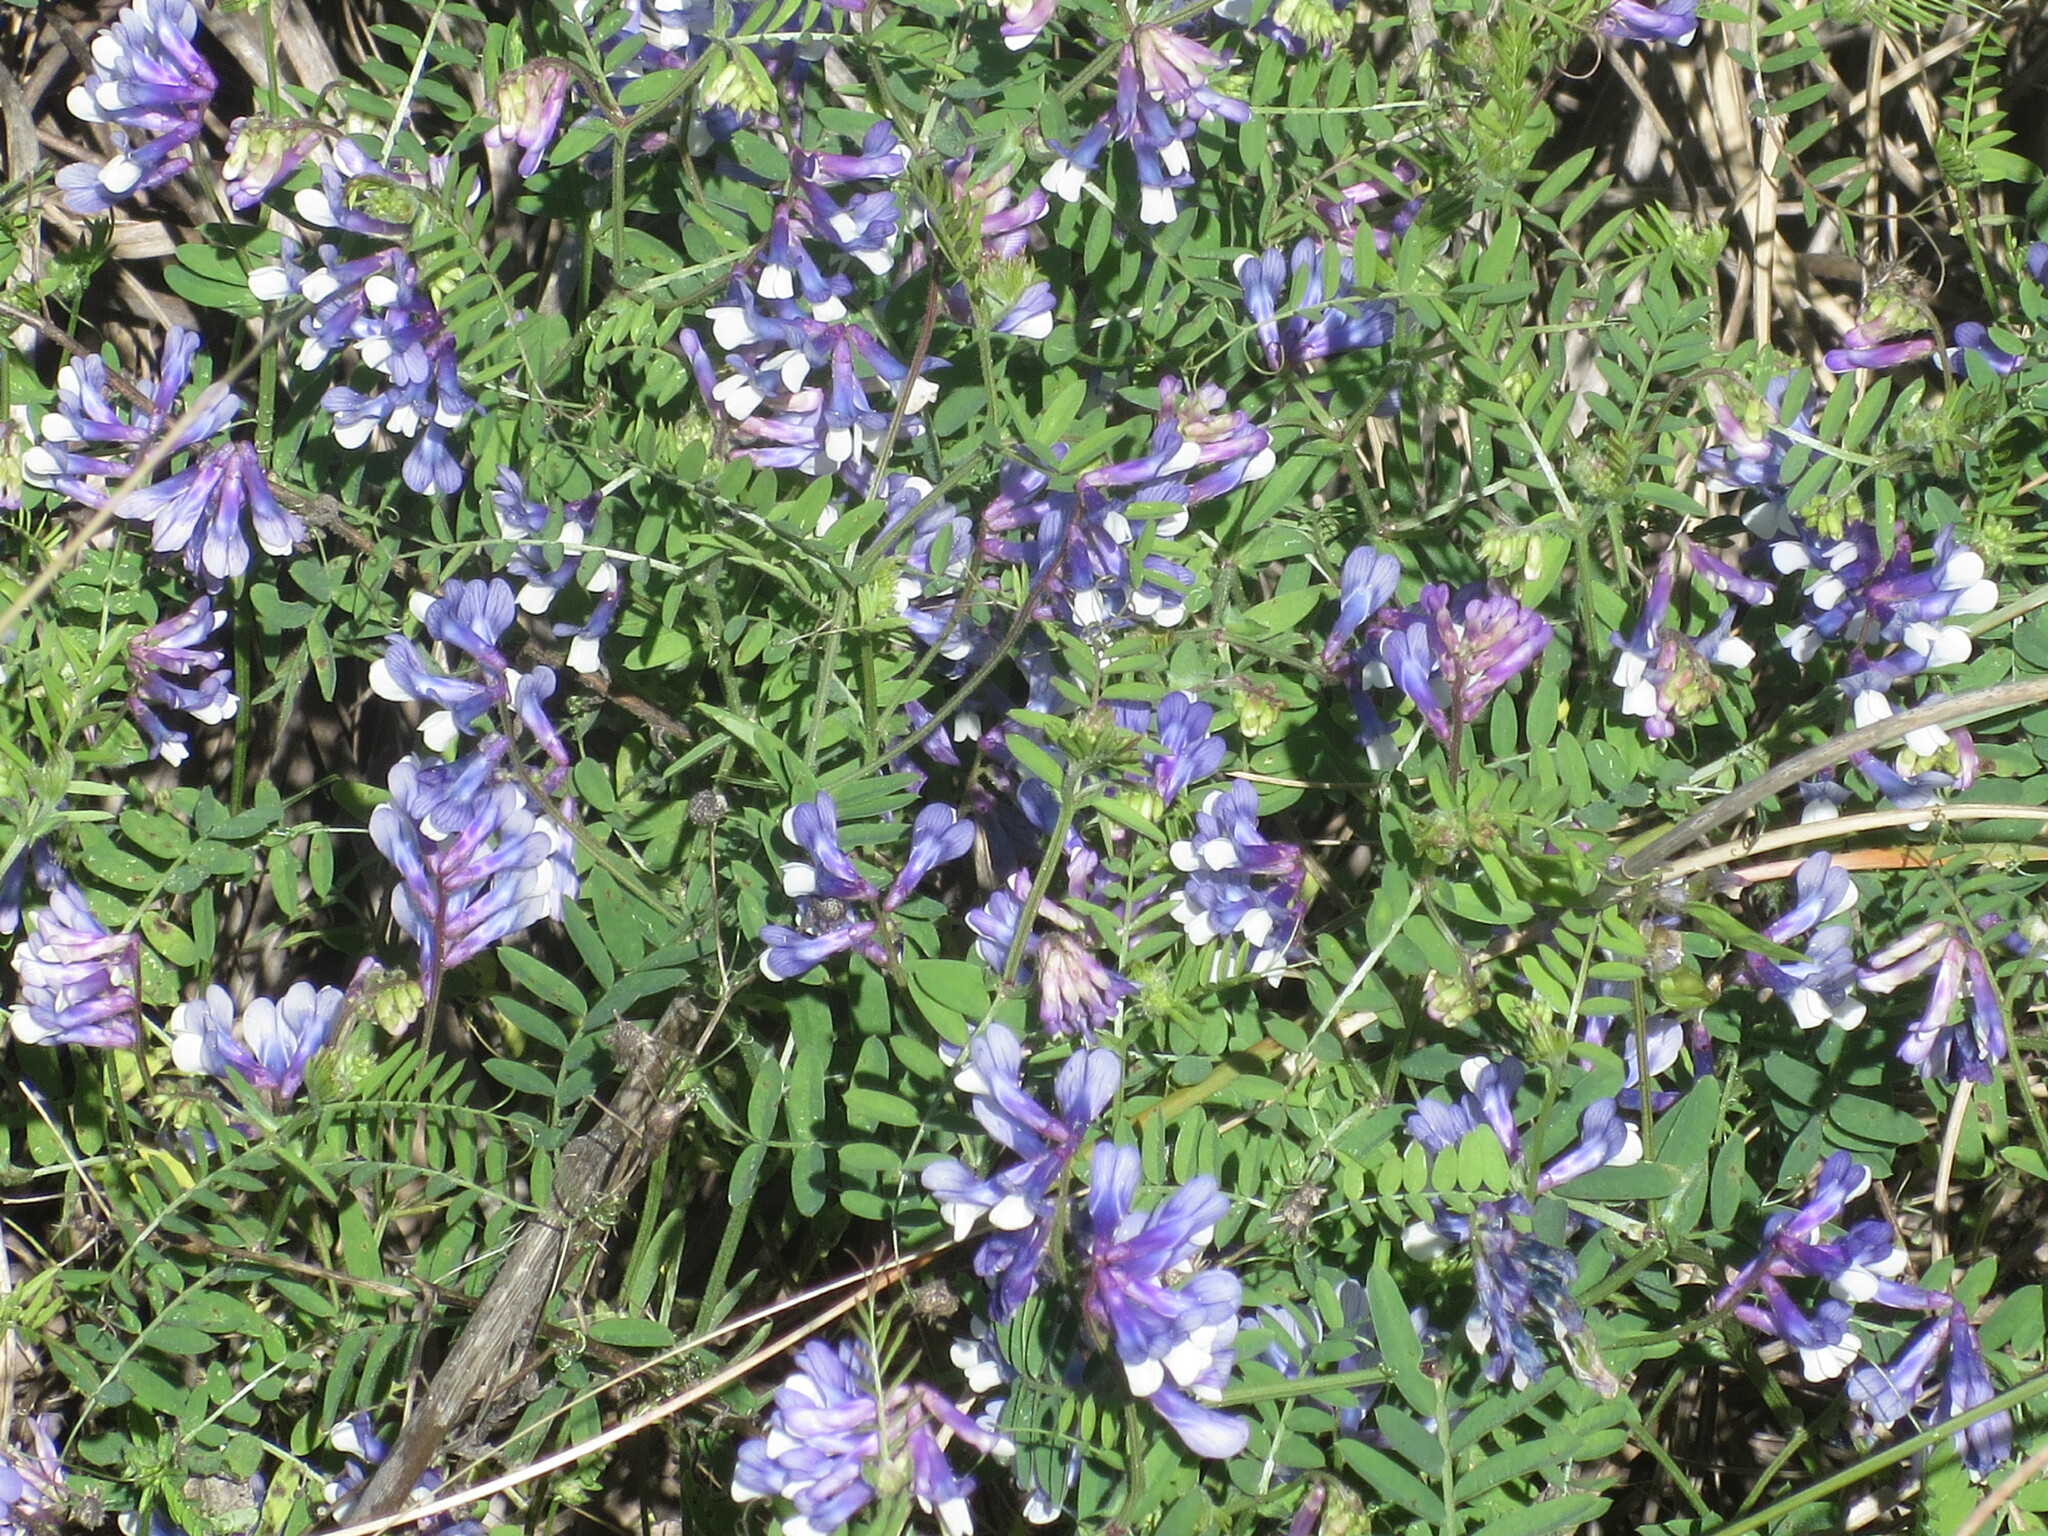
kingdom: Plantae
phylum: Tracheophyta
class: Magnoliopsida
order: Fabales
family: Fabaceae
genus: Vicia
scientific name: Vicia villosa
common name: Fodder vetch
